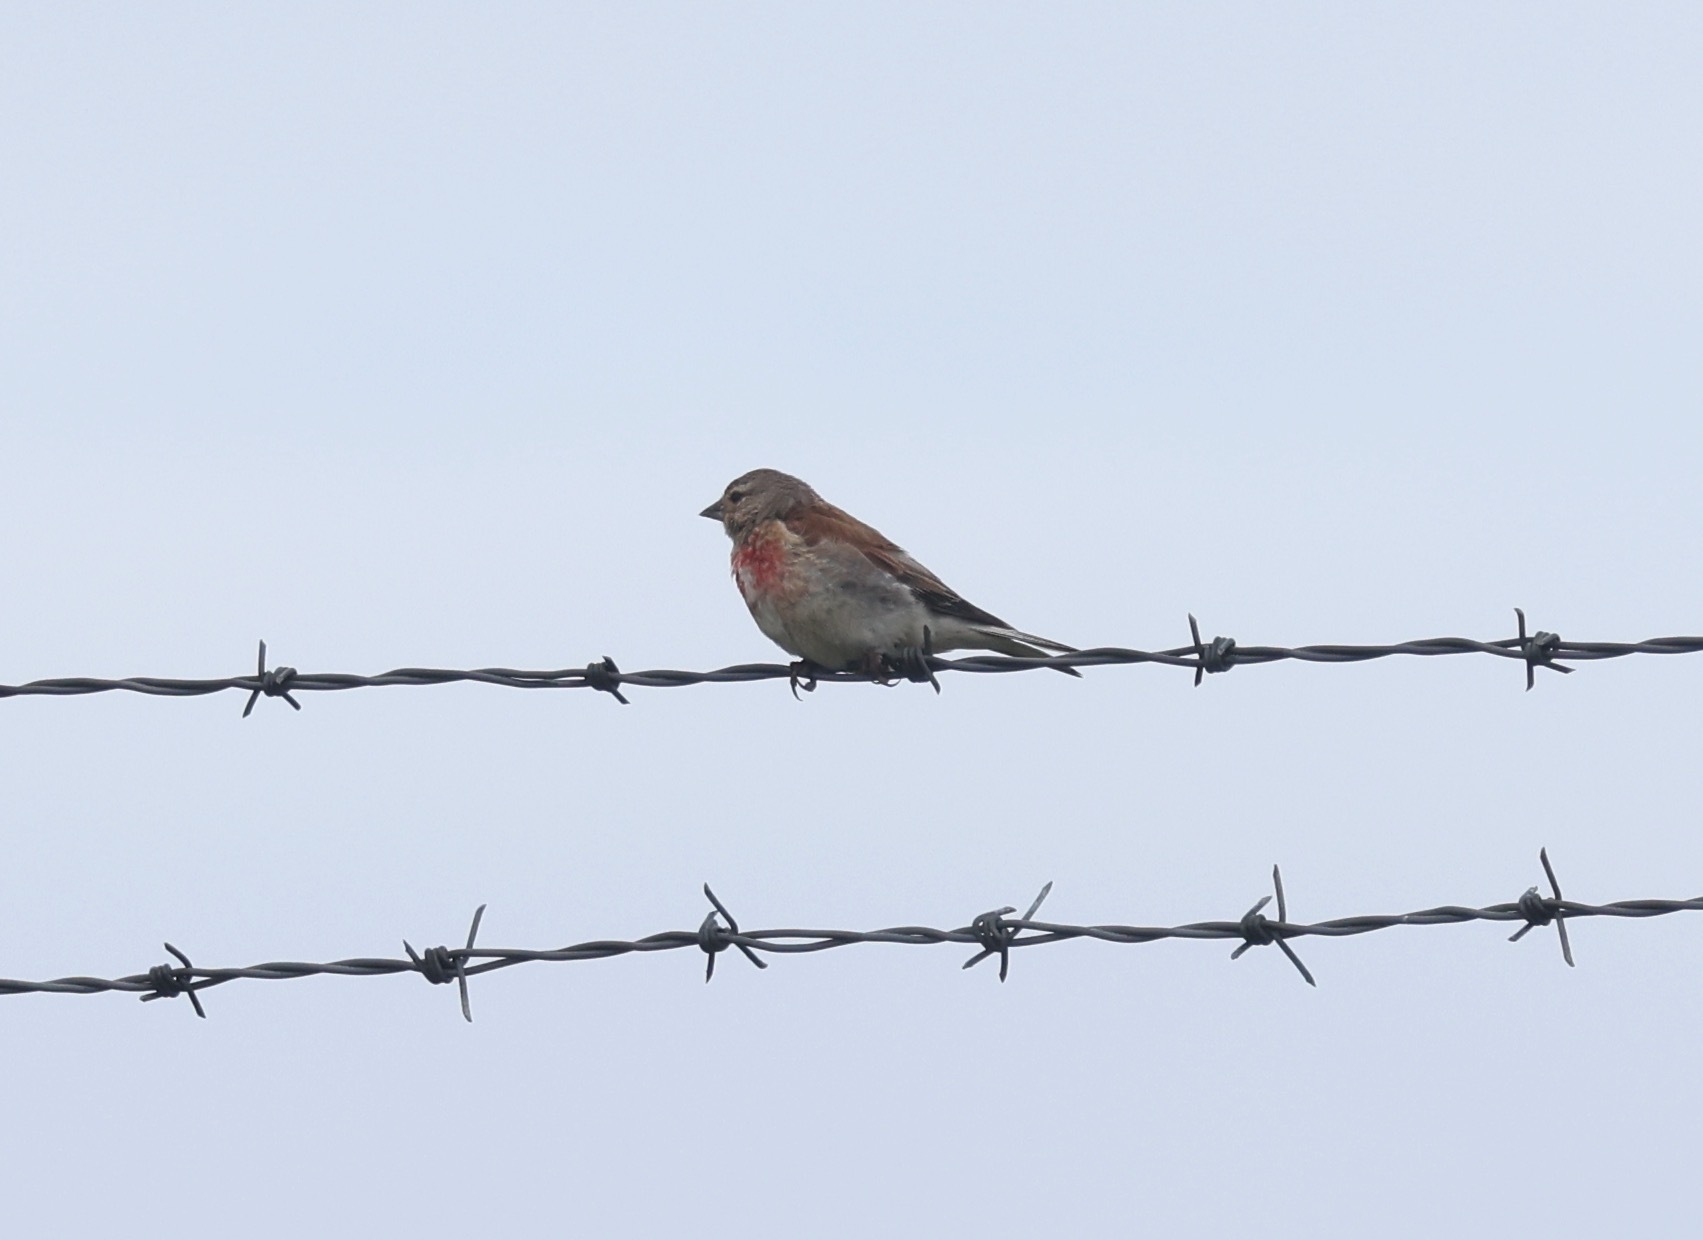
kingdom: Animalia
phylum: Chordata
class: Aves
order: Passeriformes
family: Fringillidae
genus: Linaria
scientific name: Linaria cannabina
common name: Common linnet
